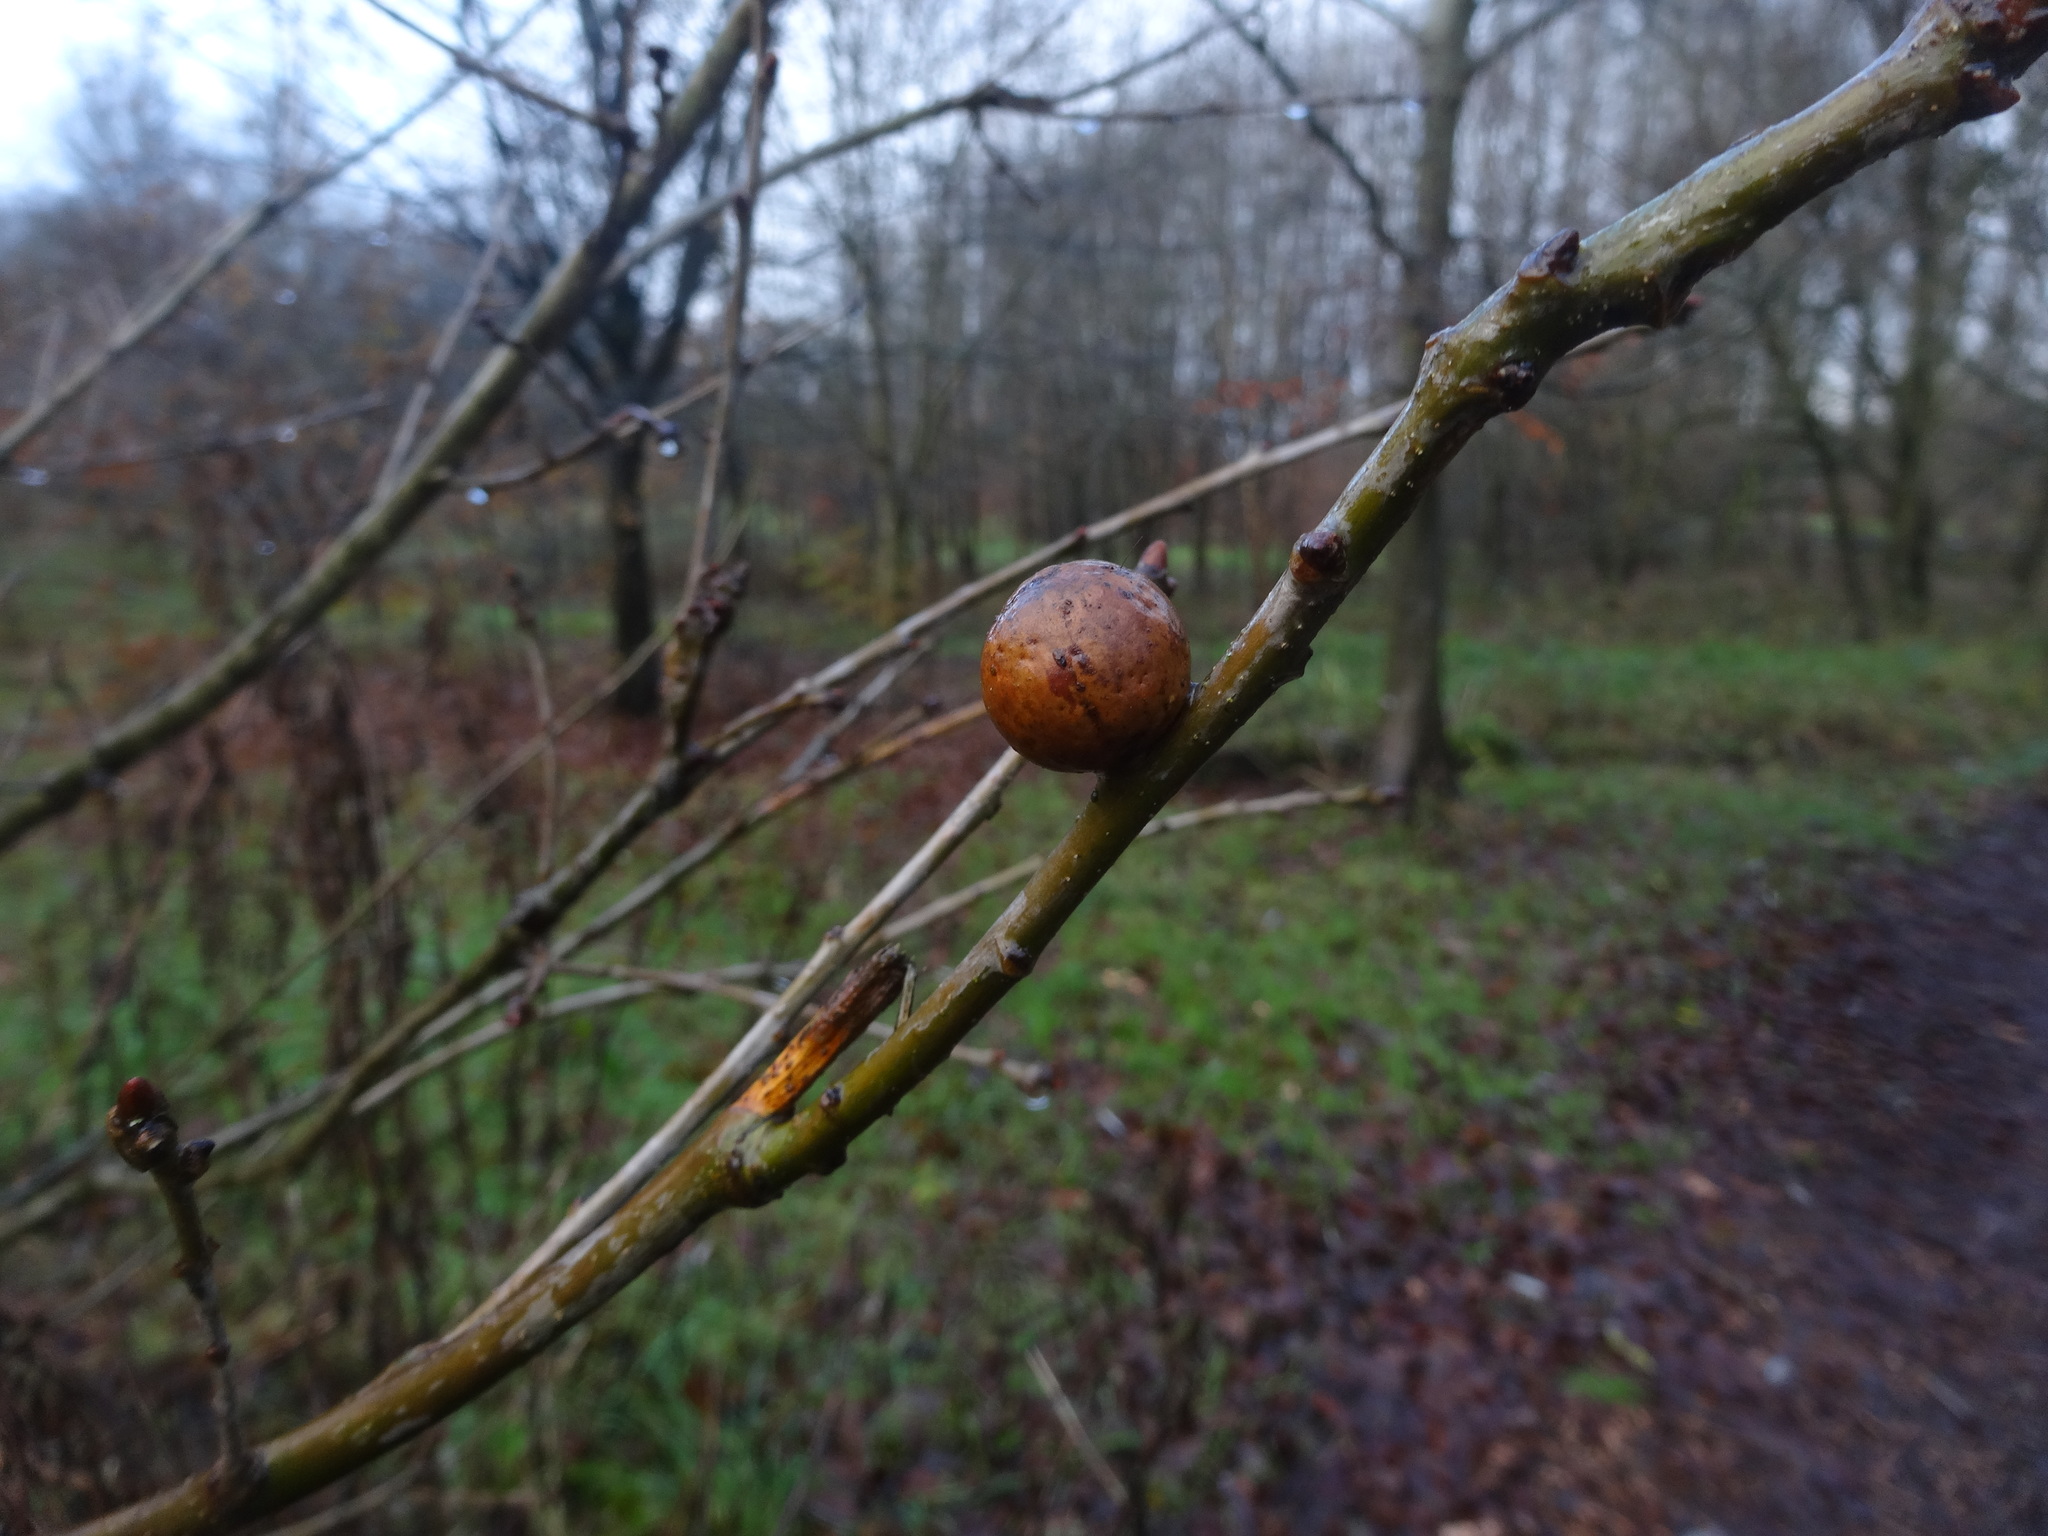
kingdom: Animalia
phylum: Arthropoda
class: Insecta
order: Hymenoptera
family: Cynipidae
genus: Andricus
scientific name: Andricus kollari
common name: Marble gall
